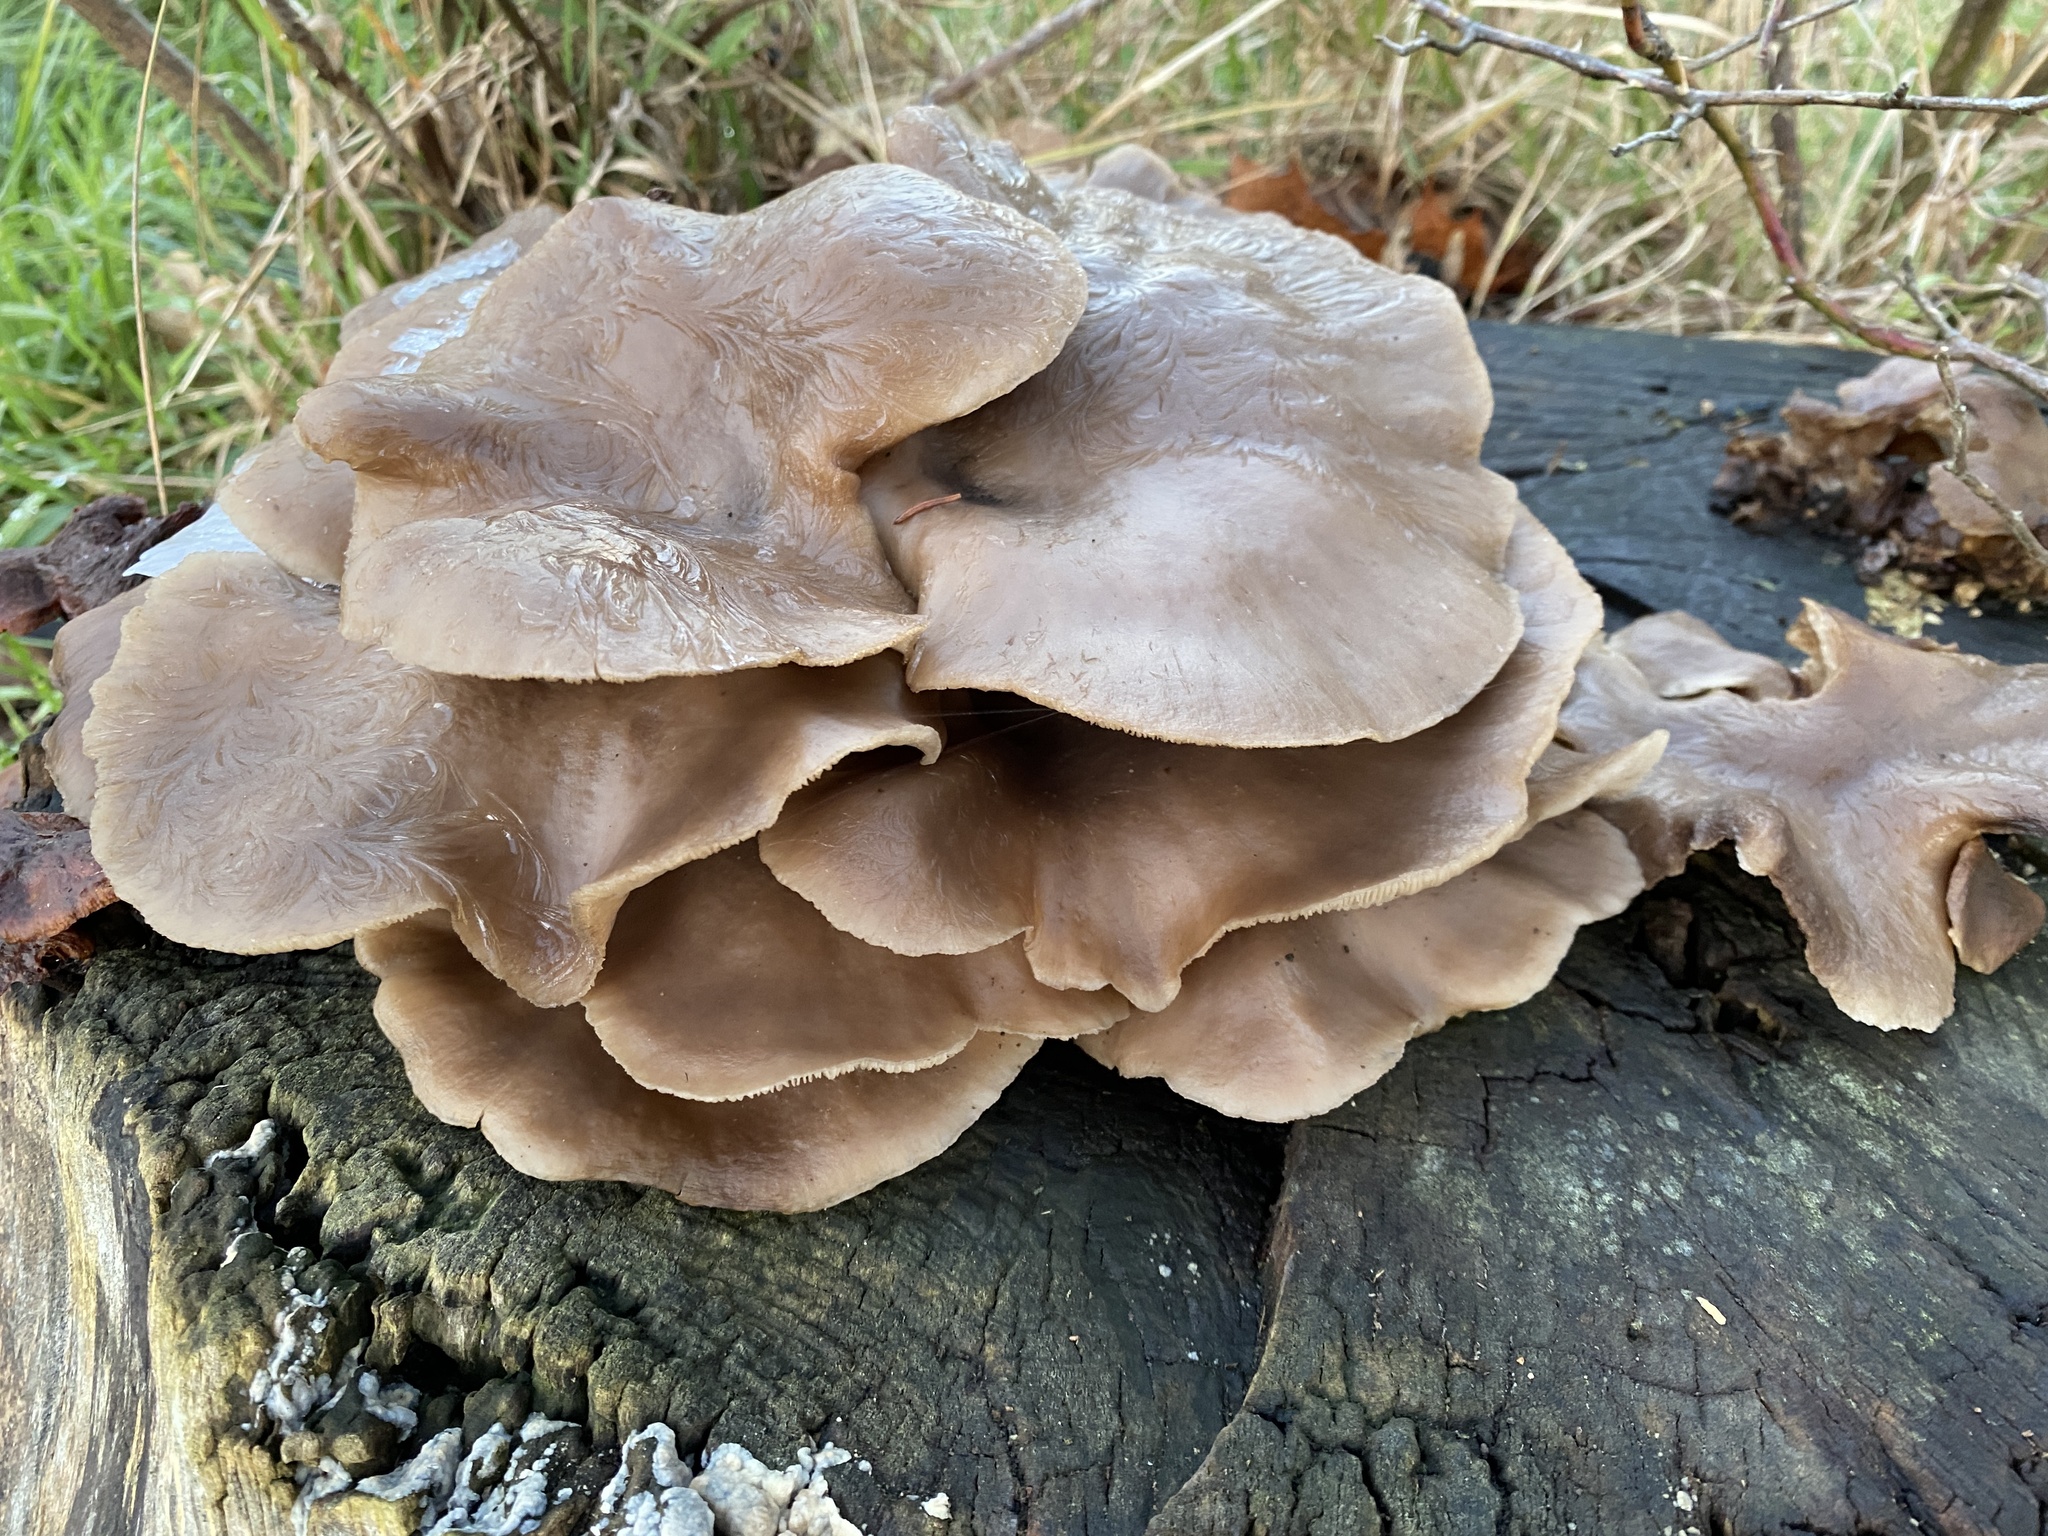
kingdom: Fungi
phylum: Basidiomycota
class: Agaricomycetes
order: Agaricales
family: Pleurotaceae
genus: Pleurotus
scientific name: Pleurotus ostreatus
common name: Oyster mushroom
